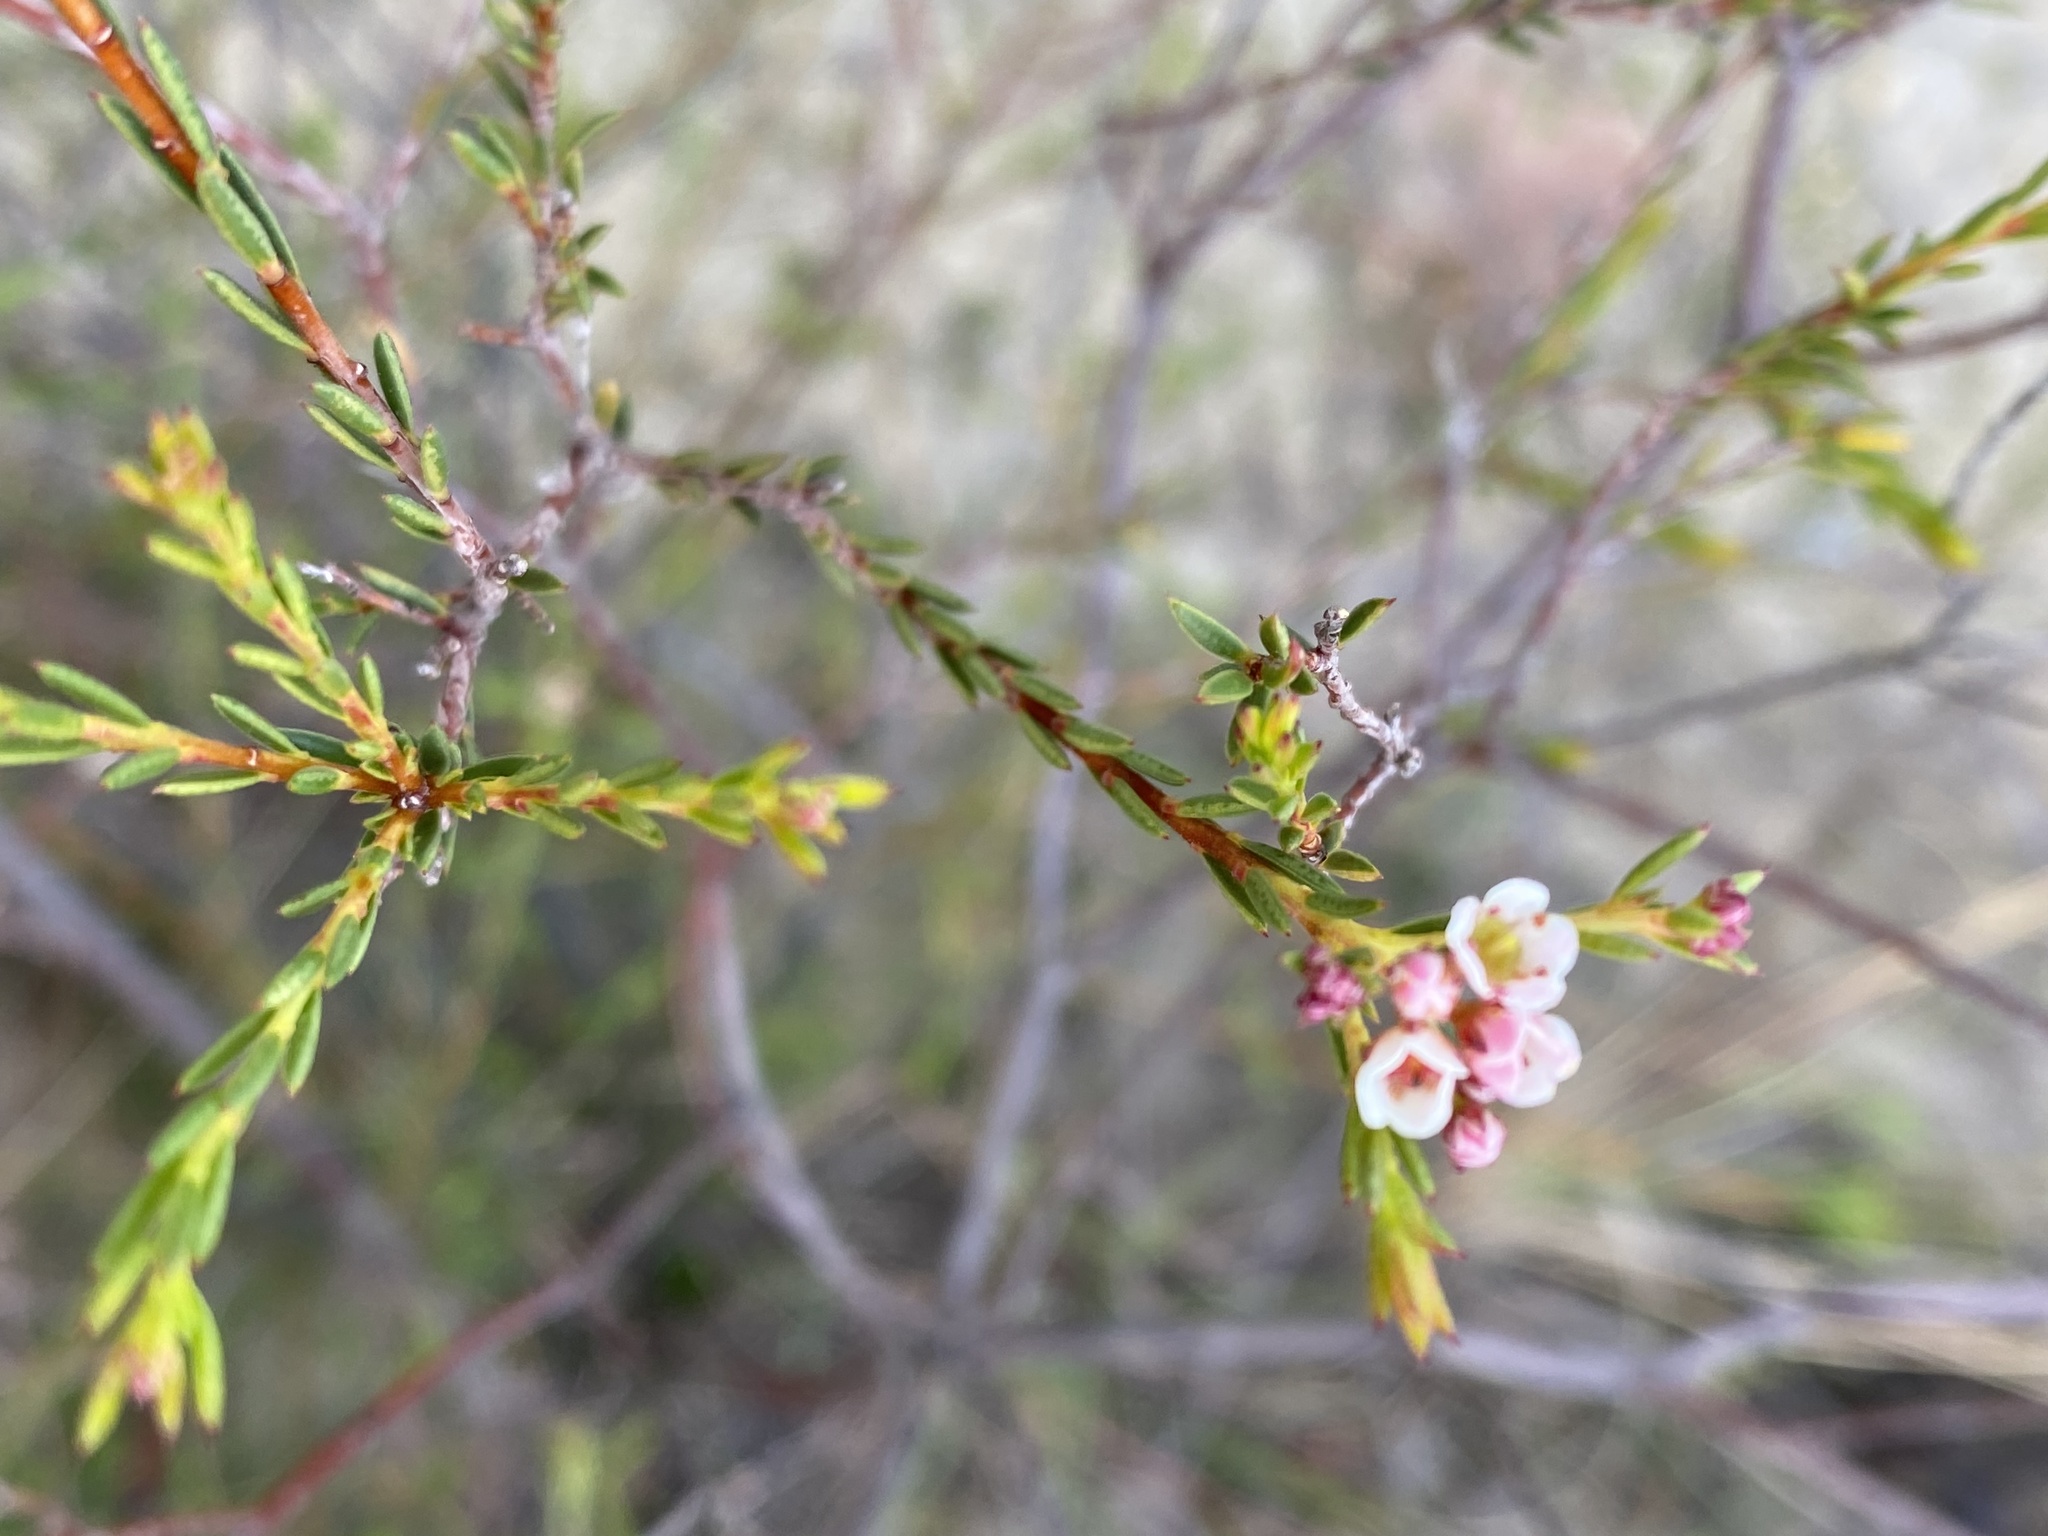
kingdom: Plantae
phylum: Tracheophyta
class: Magnoliopsida
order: Sapindales
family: Rutaceae
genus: Diosma
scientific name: Diosma hirsuta
